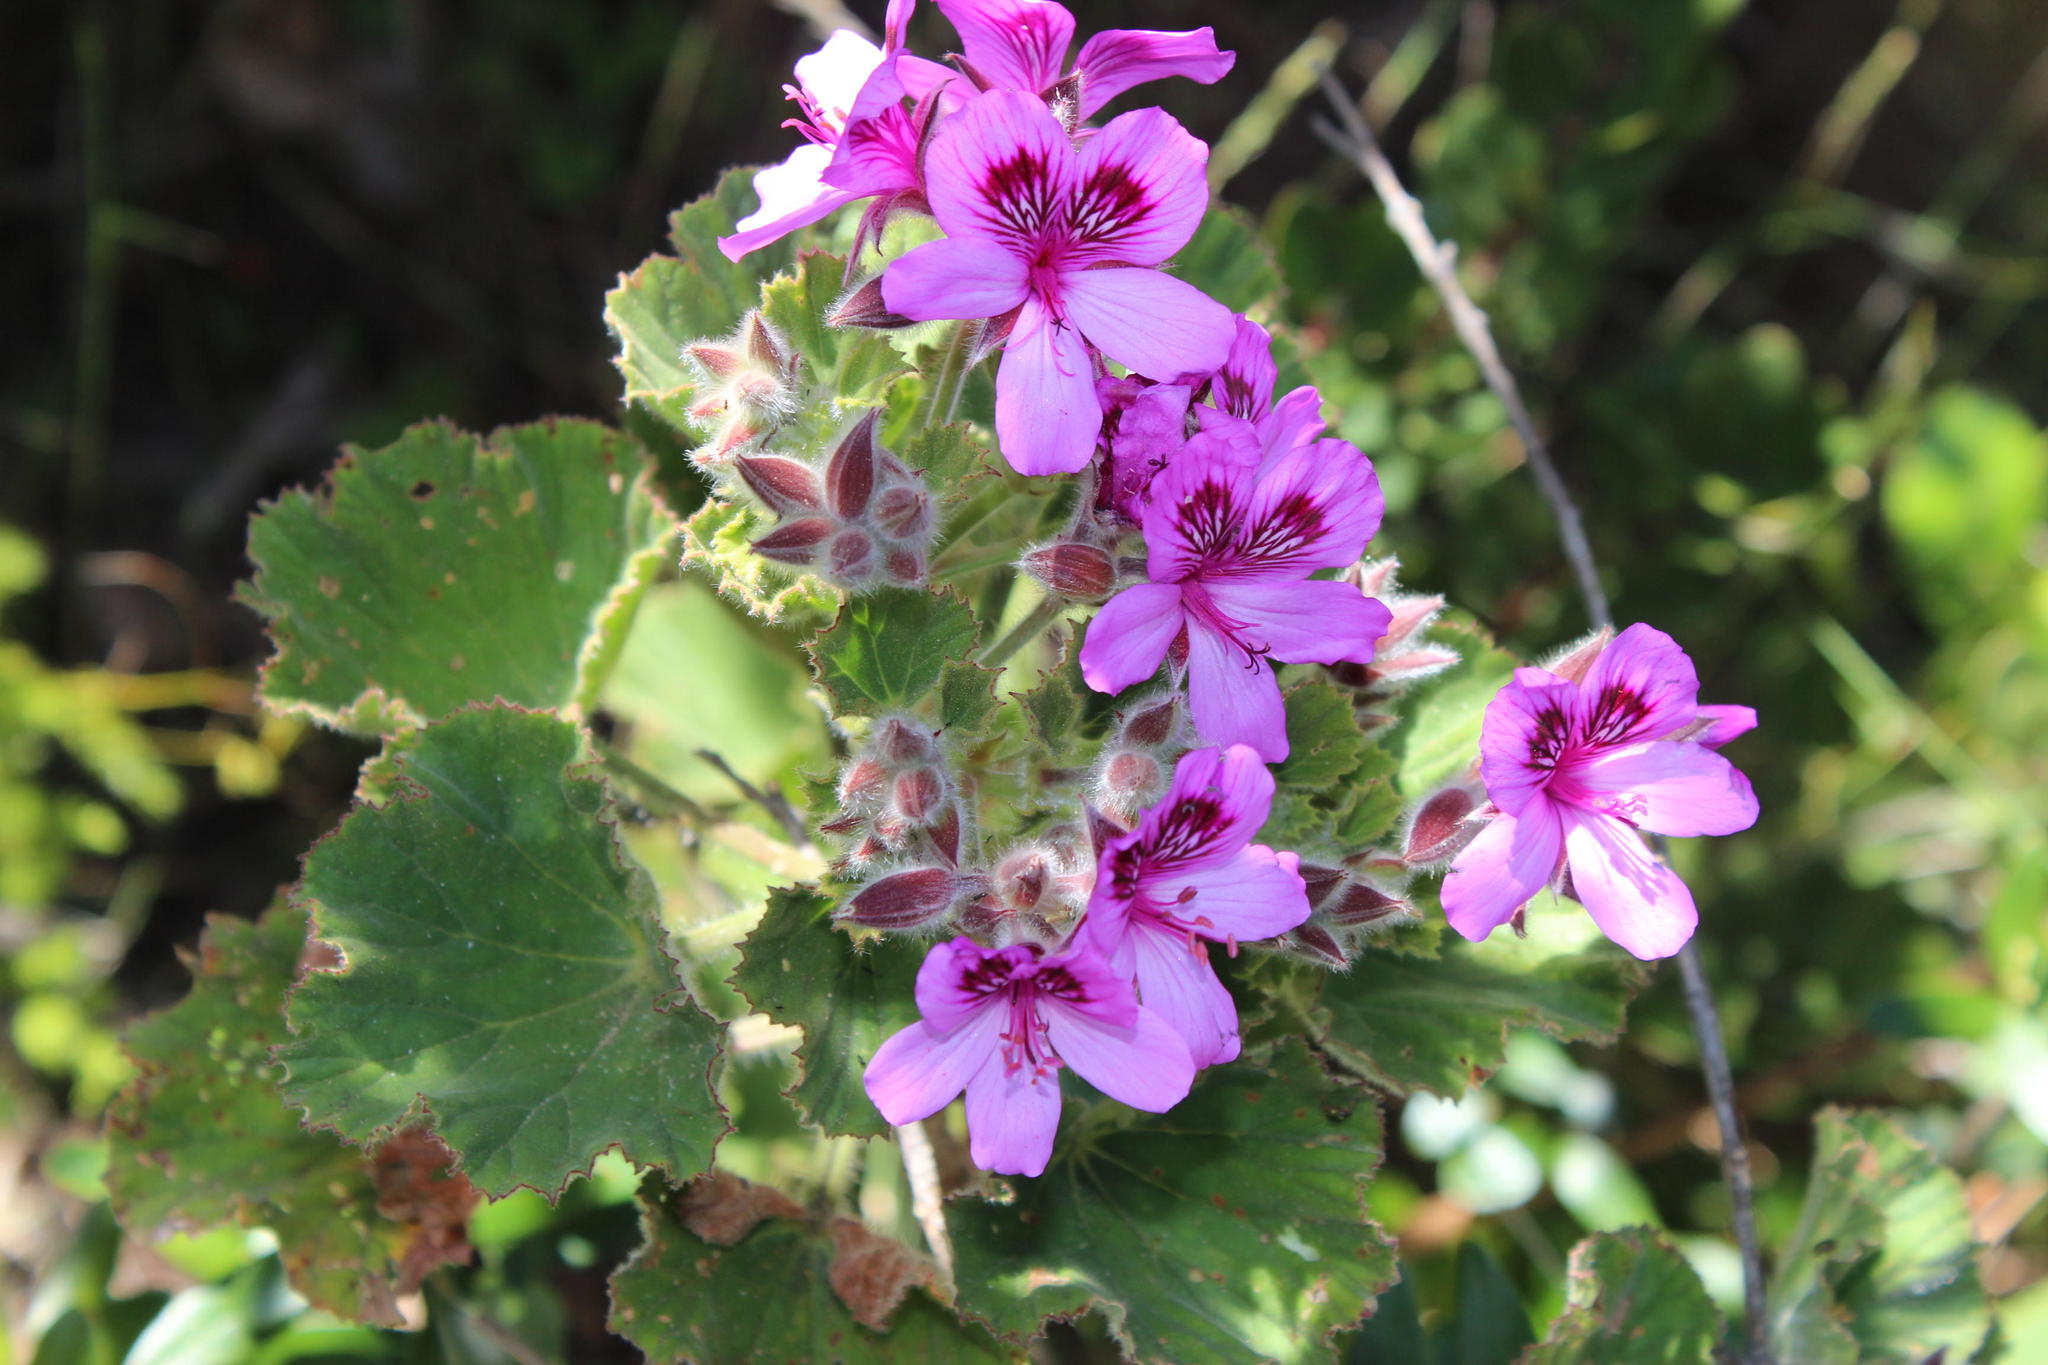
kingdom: Plantae
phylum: Tracheophyta
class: Magnoliopsida
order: Geraniales
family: Geraniaceae
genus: Pelargonium
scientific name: Pelargonium cucullatum
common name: Tree pelargonium
